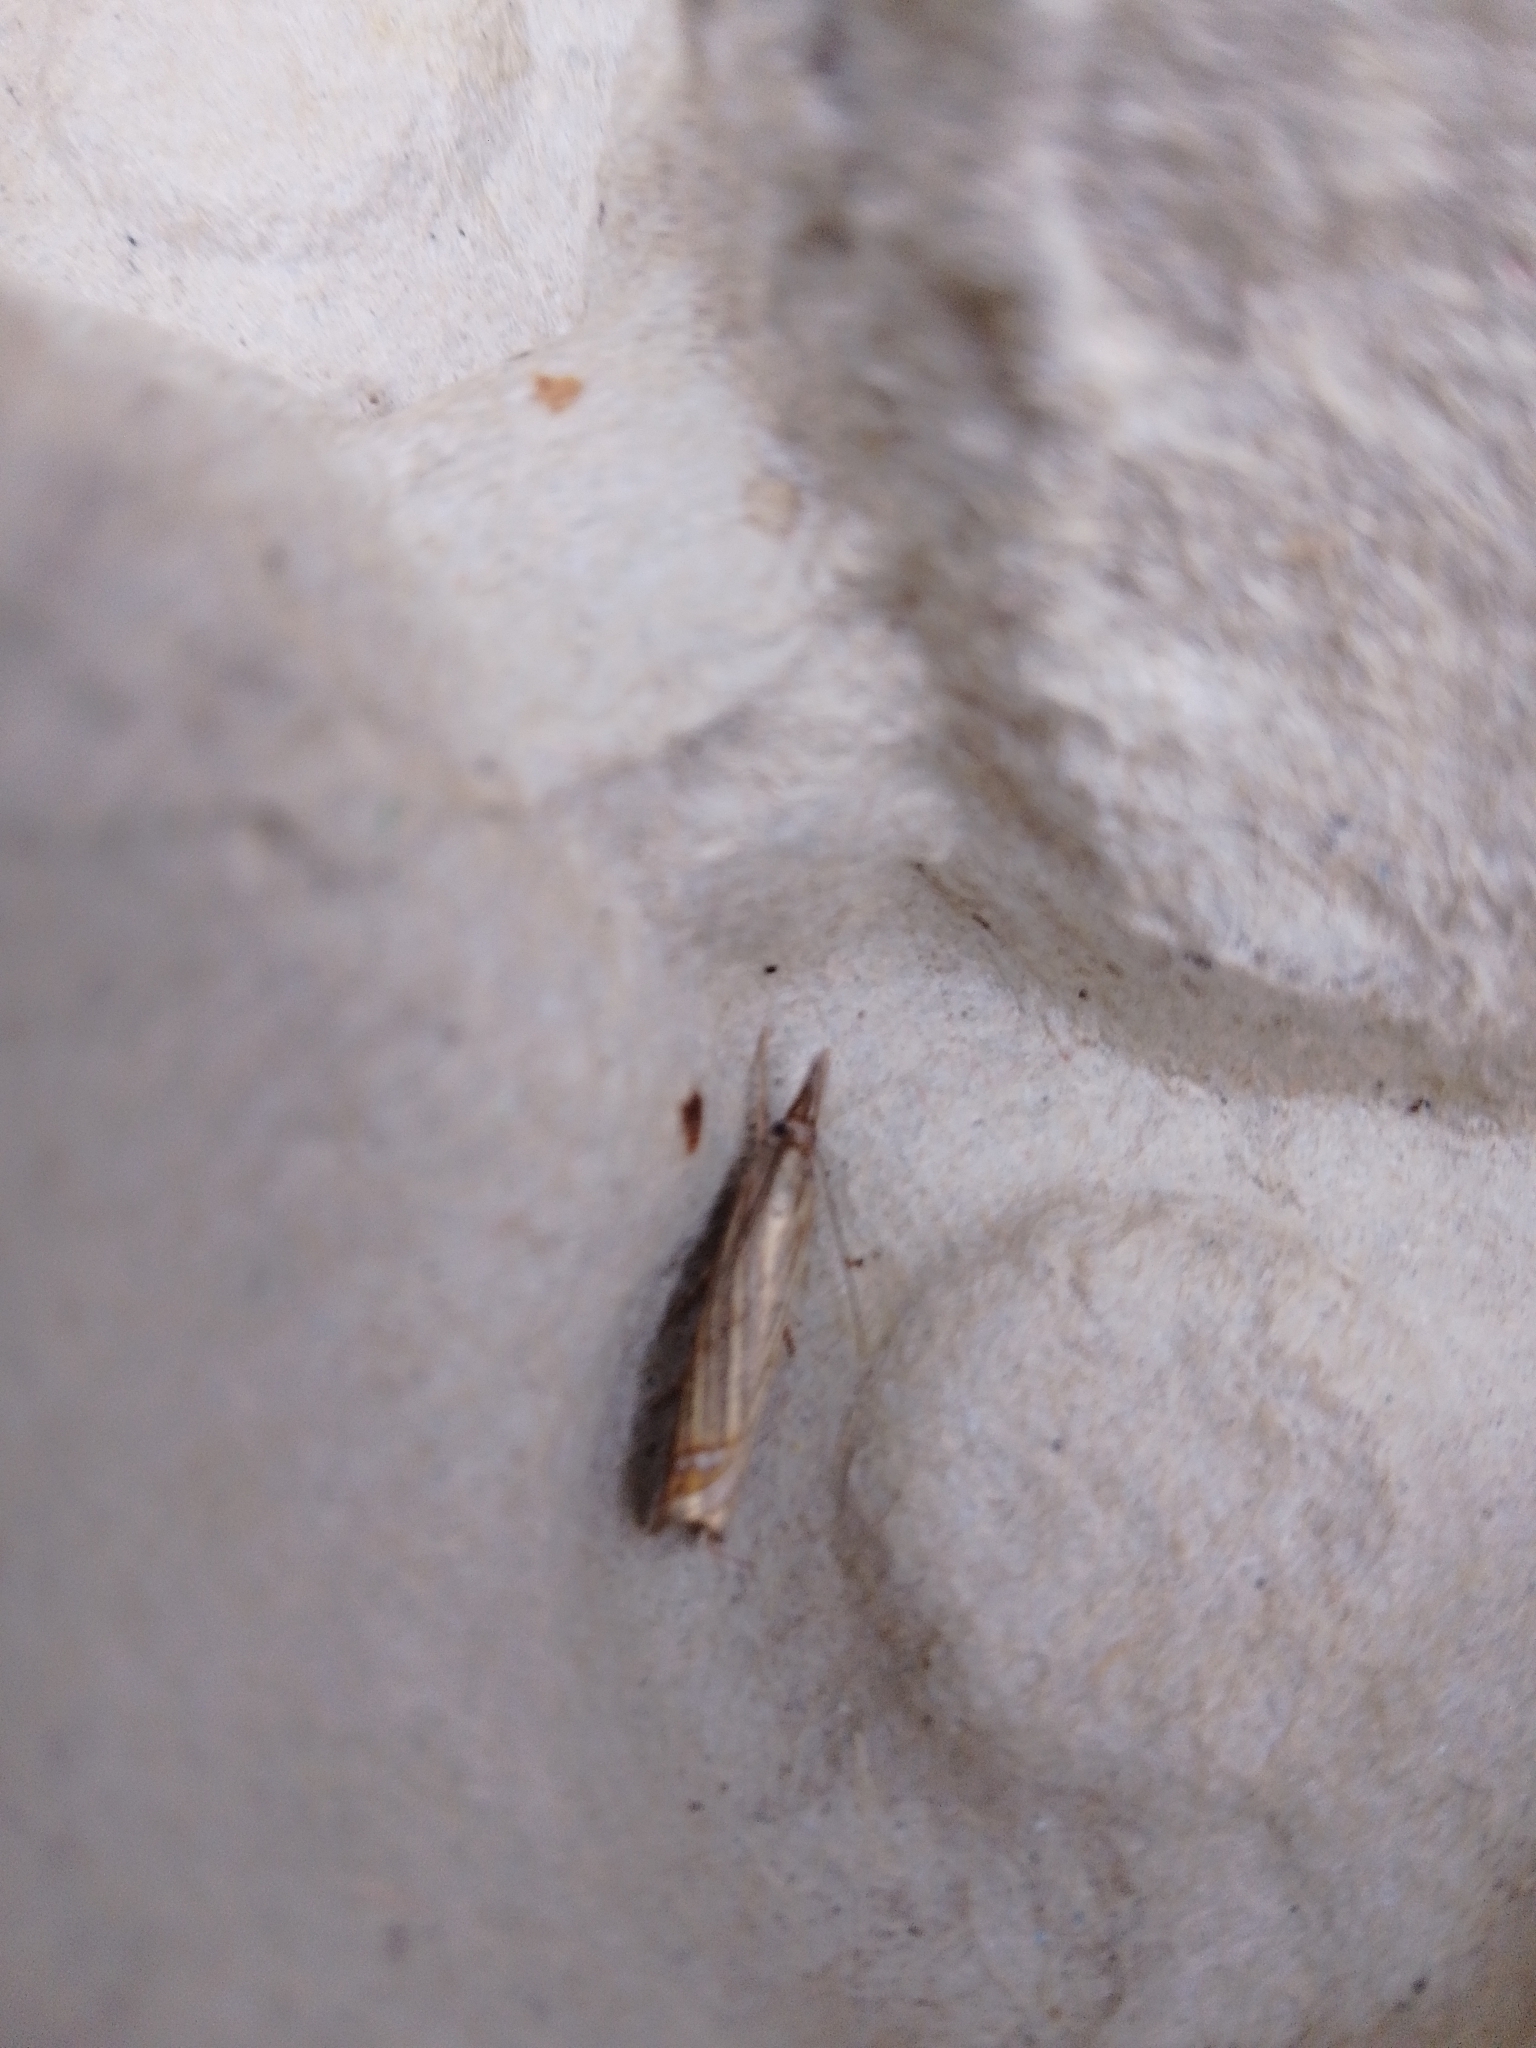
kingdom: Animalia
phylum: Arthropoda
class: Insecta
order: Lepidoptera
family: Crambidae
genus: Chrysoteuchia
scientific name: Chrysoteuchia culmella
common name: Garden grass-veneer
